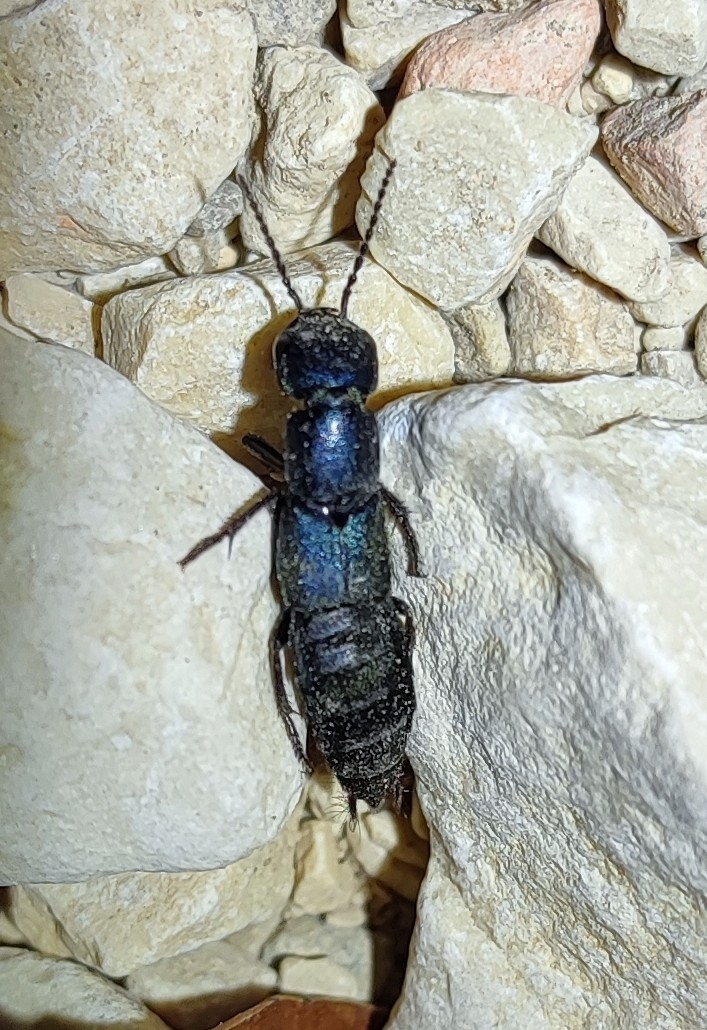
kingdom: Animalia
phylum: Arthropoda
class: Insecta
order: Coleoptera
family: Staphylinidae
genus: Ocypus
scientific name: Ocypus ophthalmicus
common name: Blue rove-beetle
